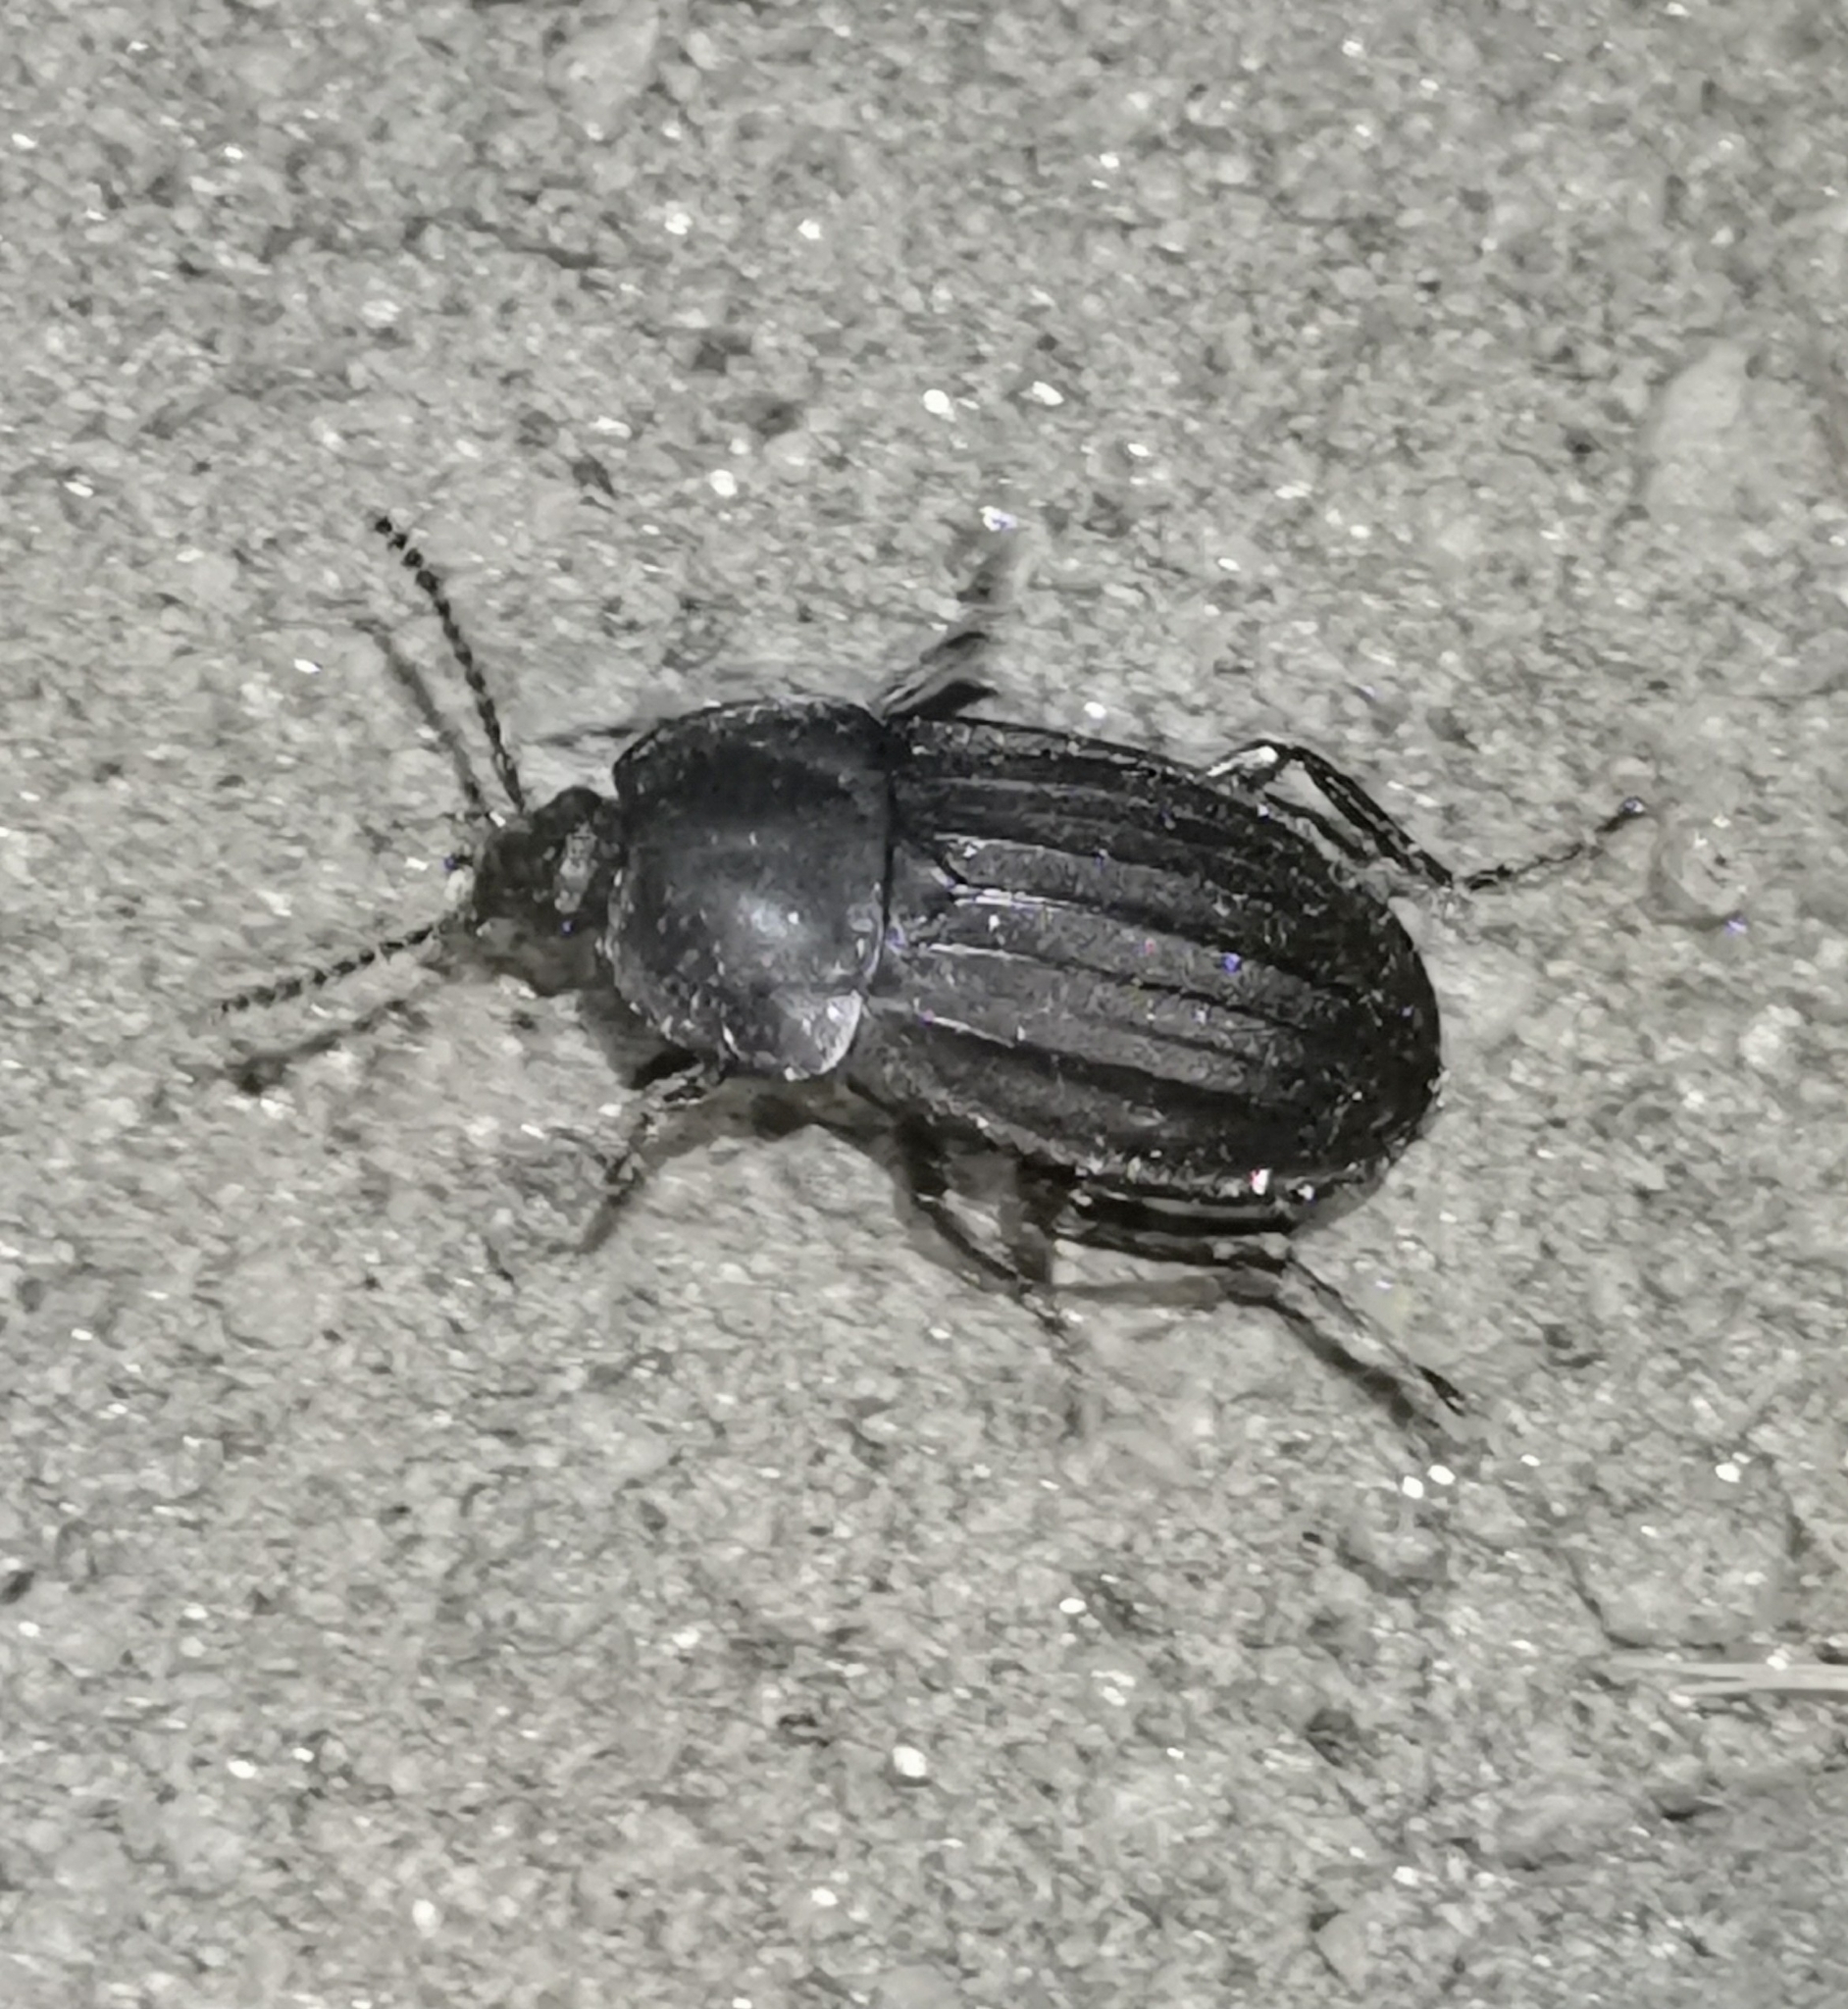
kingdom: Animalia
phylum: Arthropoda
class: Insecta
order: Coleoptera
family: Staphylinidae
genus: Silpha
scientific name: Silpha carinata
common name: Silphid beetle
